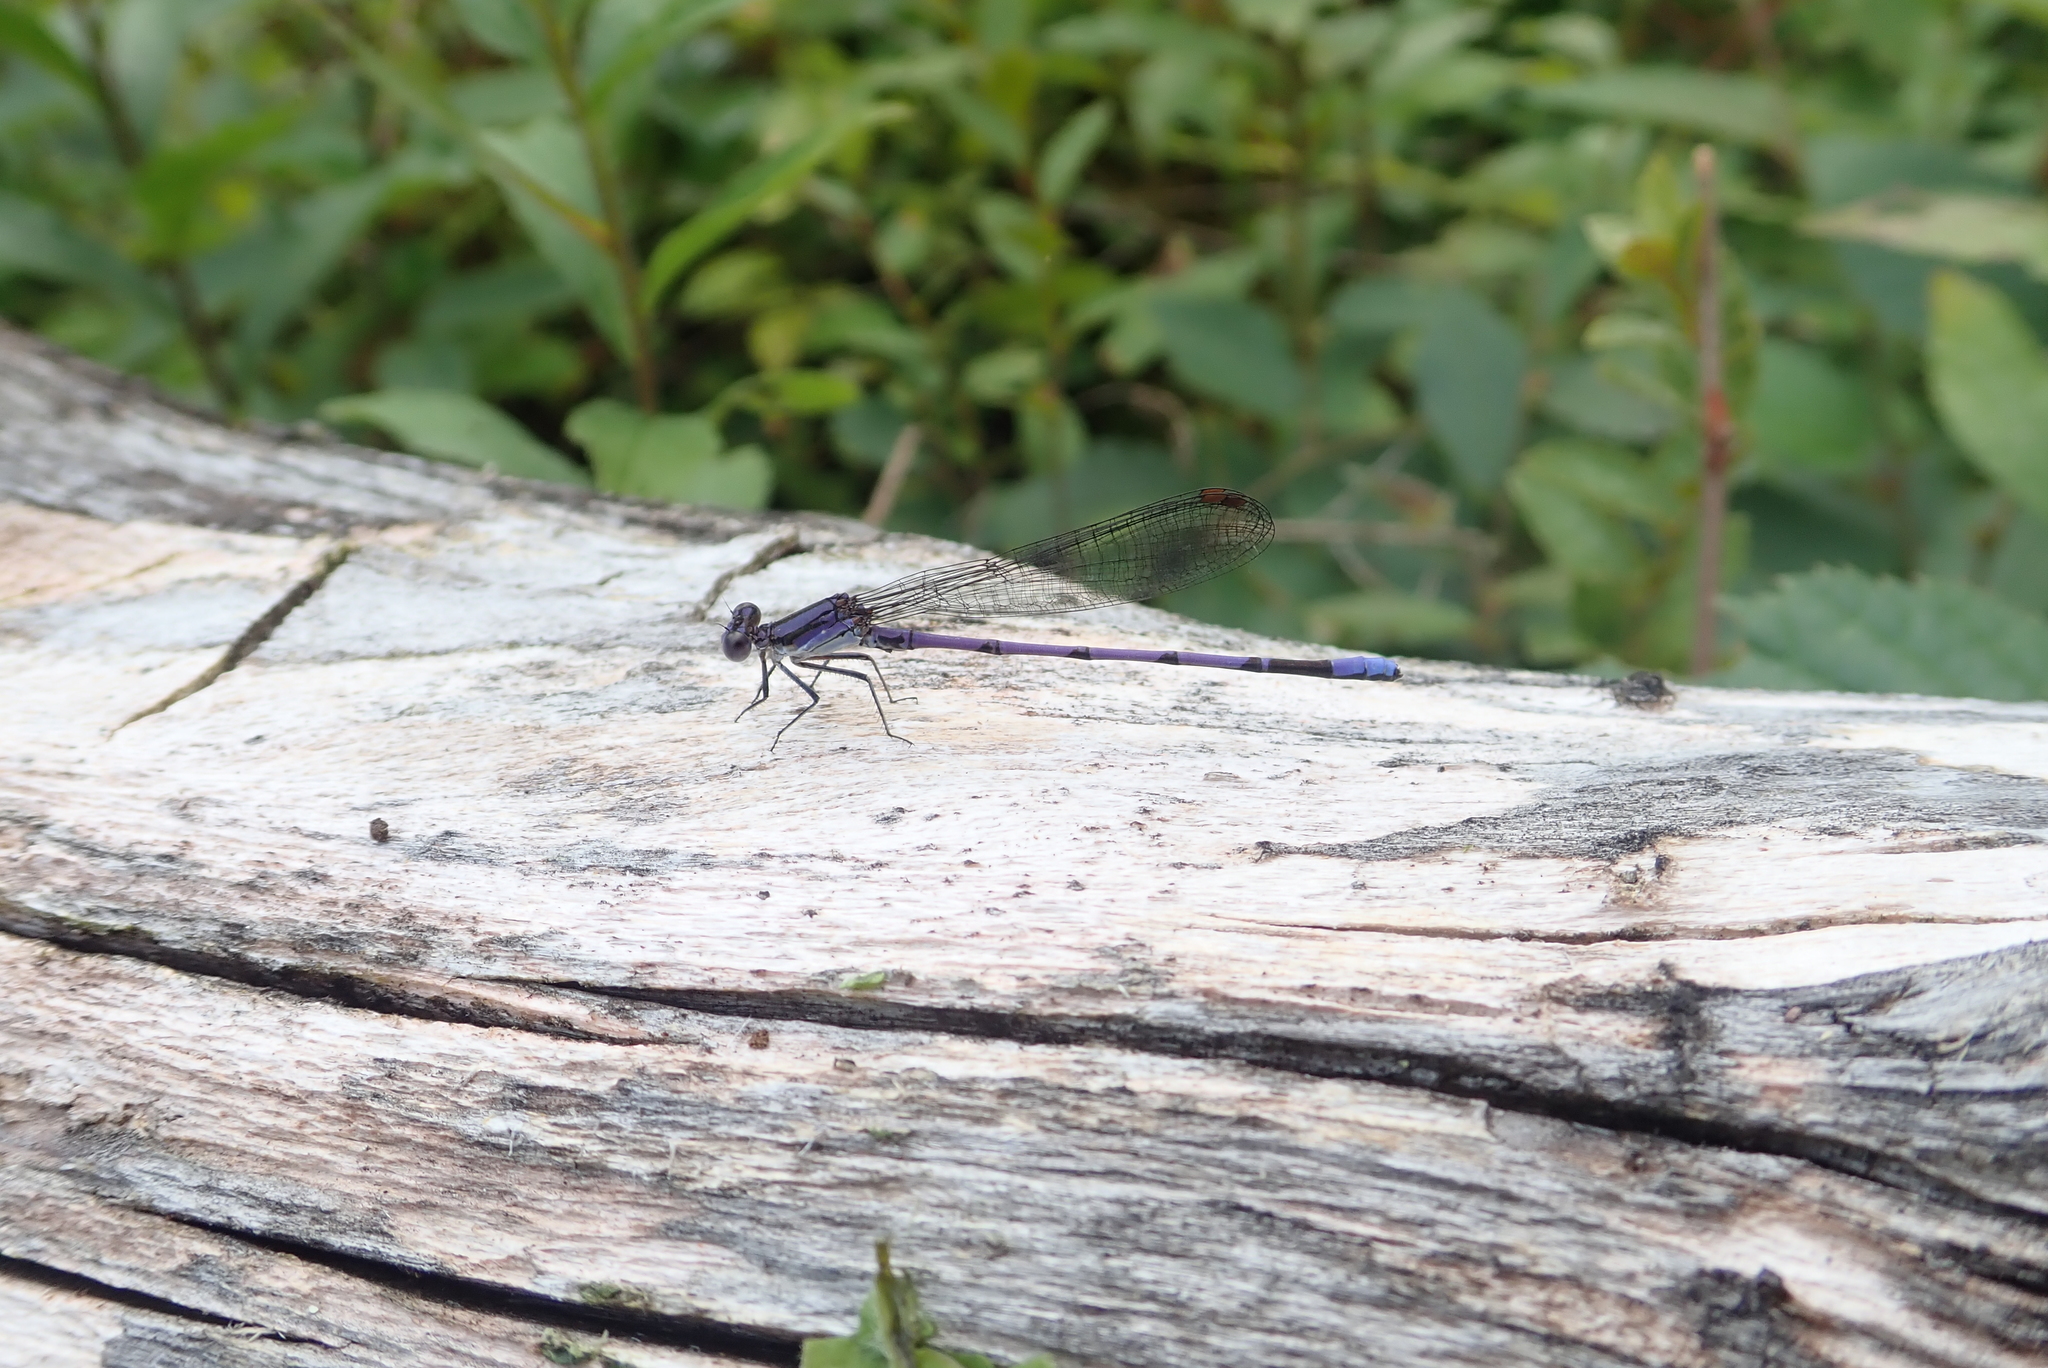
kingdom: Animalia
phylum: Arthropoda
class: Insecta
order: Odonata
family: Coenagrionidae
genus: Argia
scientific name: Argia fumipennis
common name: Variable dancer
